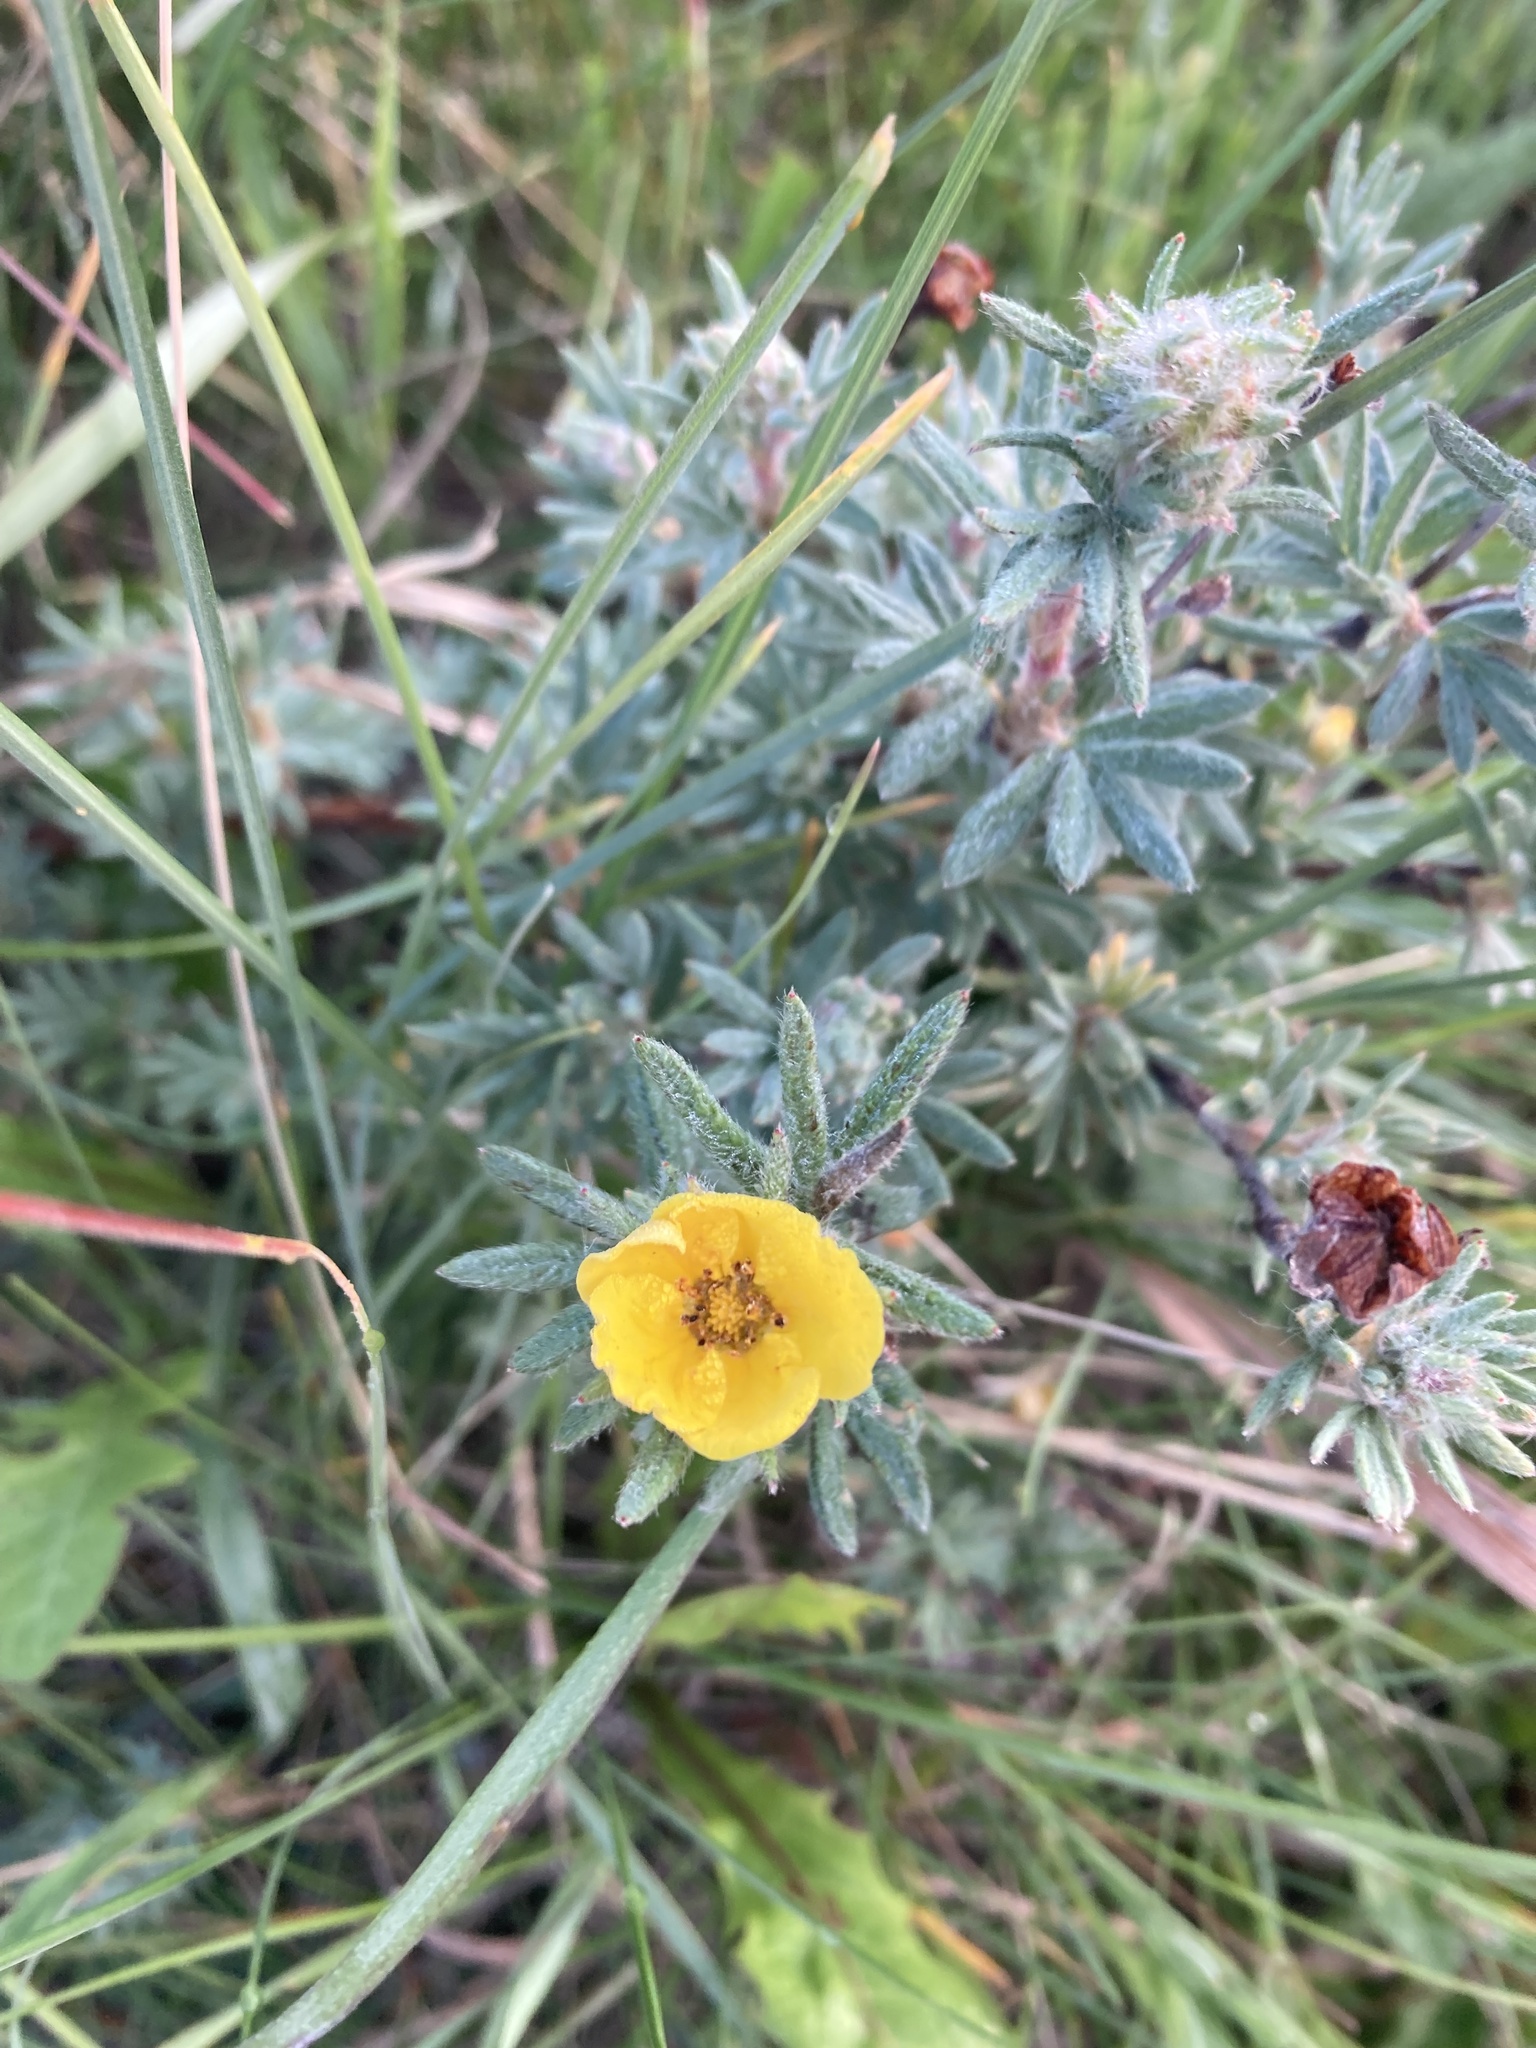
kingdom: Plantae
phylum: Tracheophyta
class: Magnoliopsida
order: Rosales
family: Rosaceae
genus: Dasiphora
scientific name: Dasiphora fruticosa
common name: Shrubby cinquefoil
